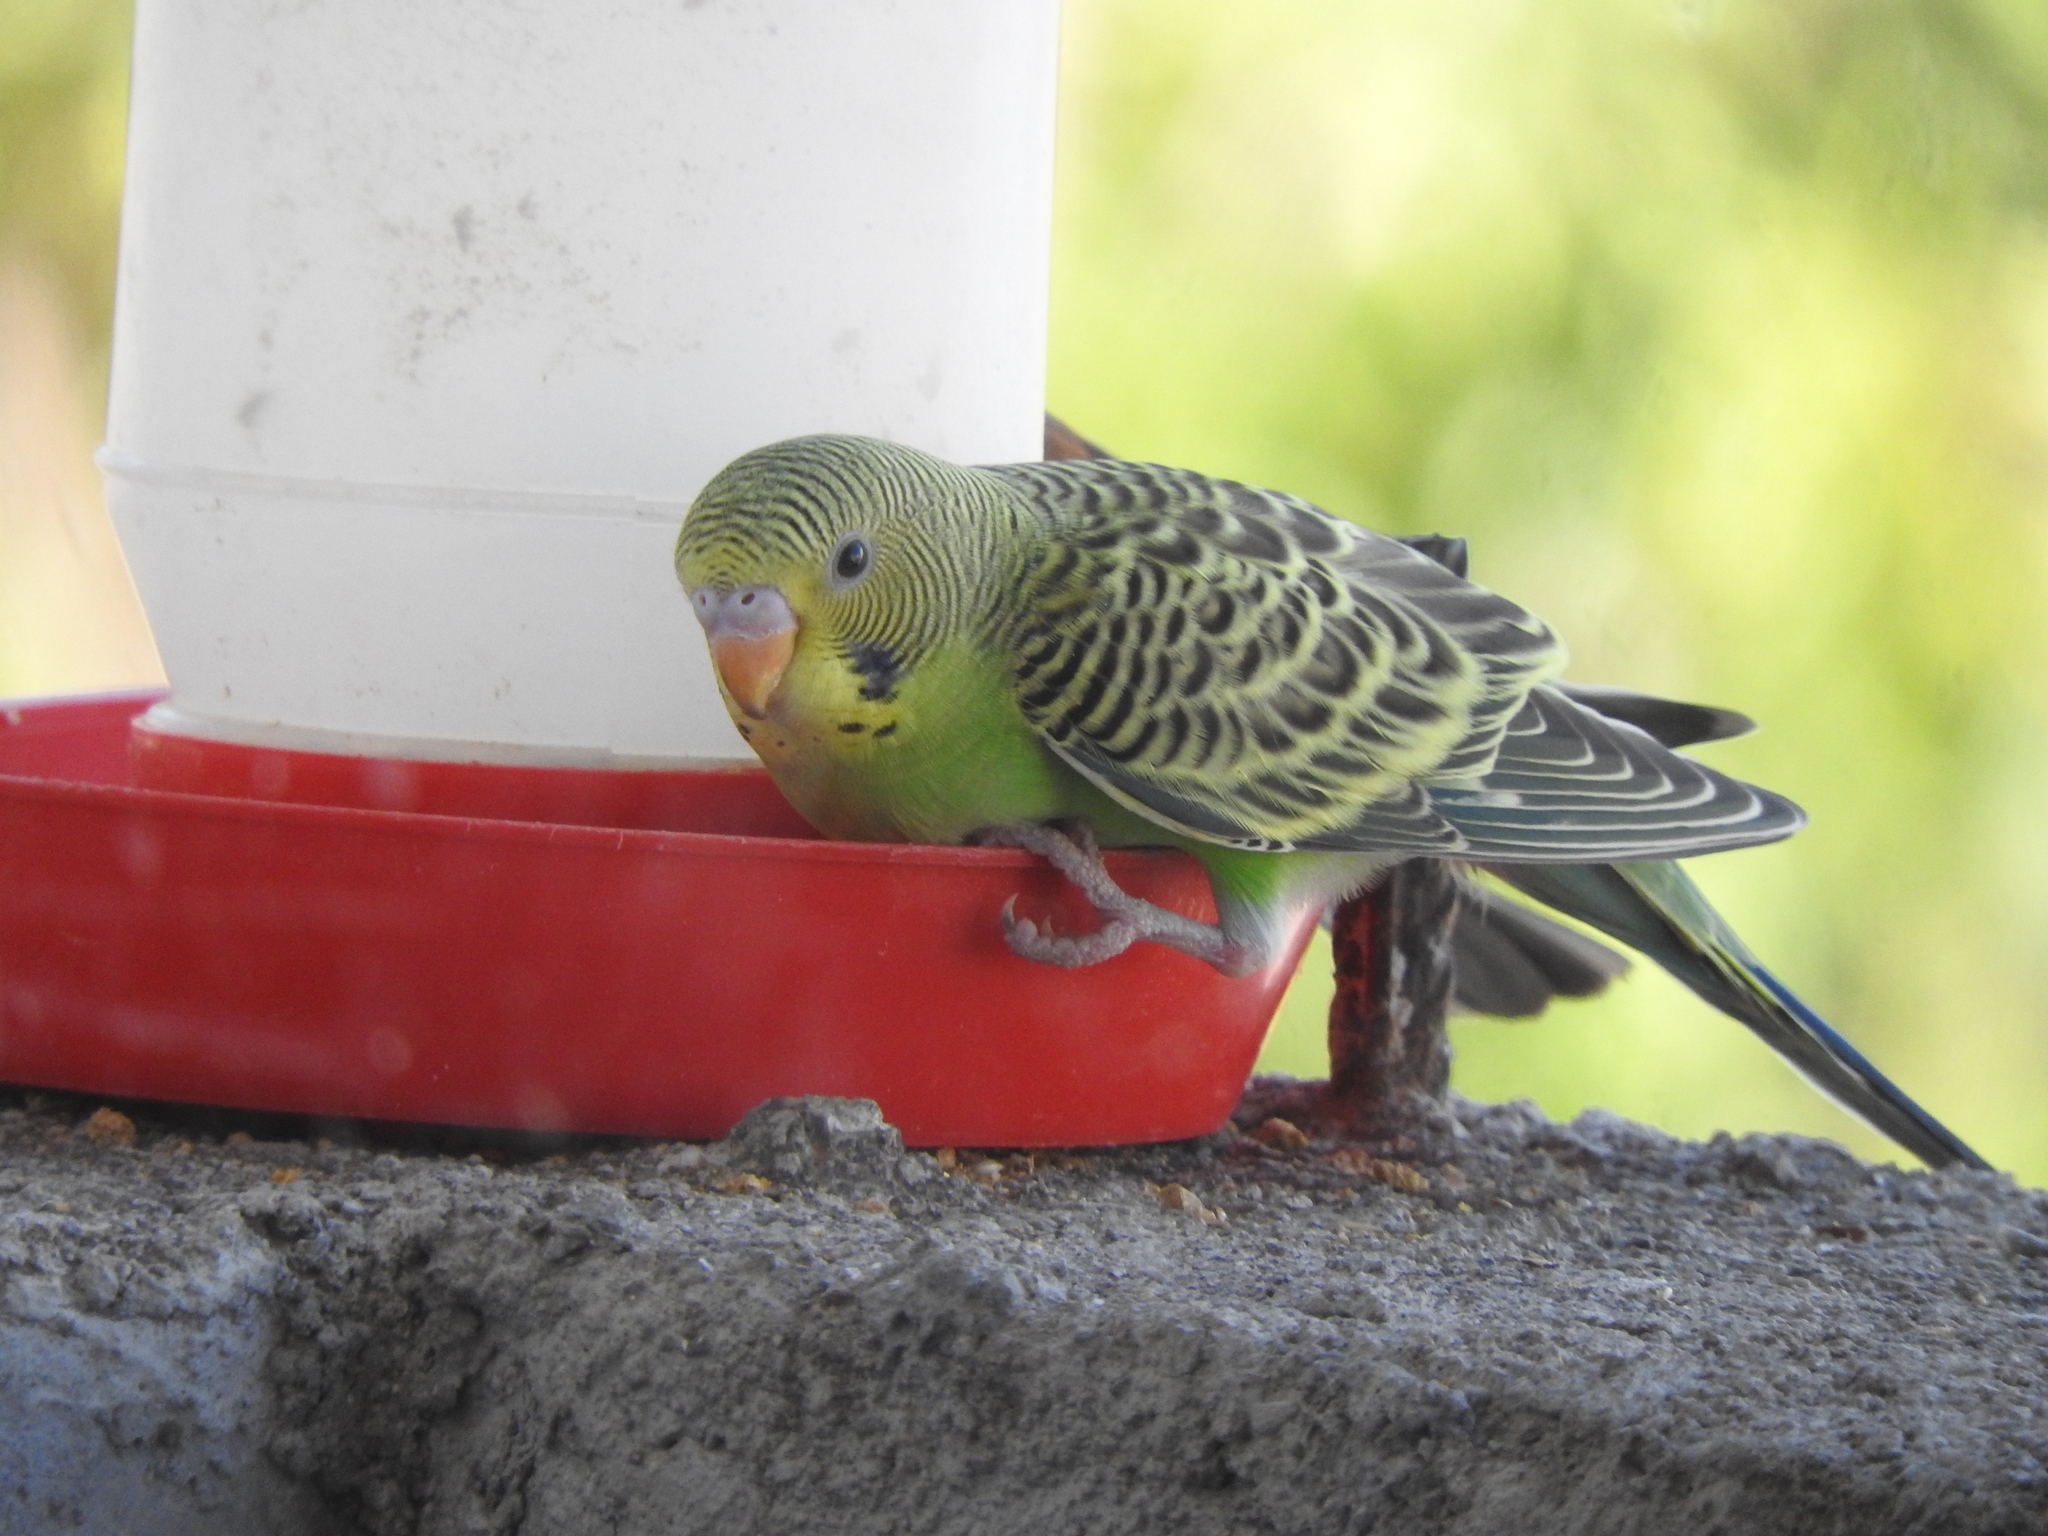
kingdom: Animalia
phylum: Chordata
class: Aves
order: Psittaciformes
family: Psittacidae
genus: Melopsittacus
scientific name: Melopsittacus undulatus
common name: Budgerigar
